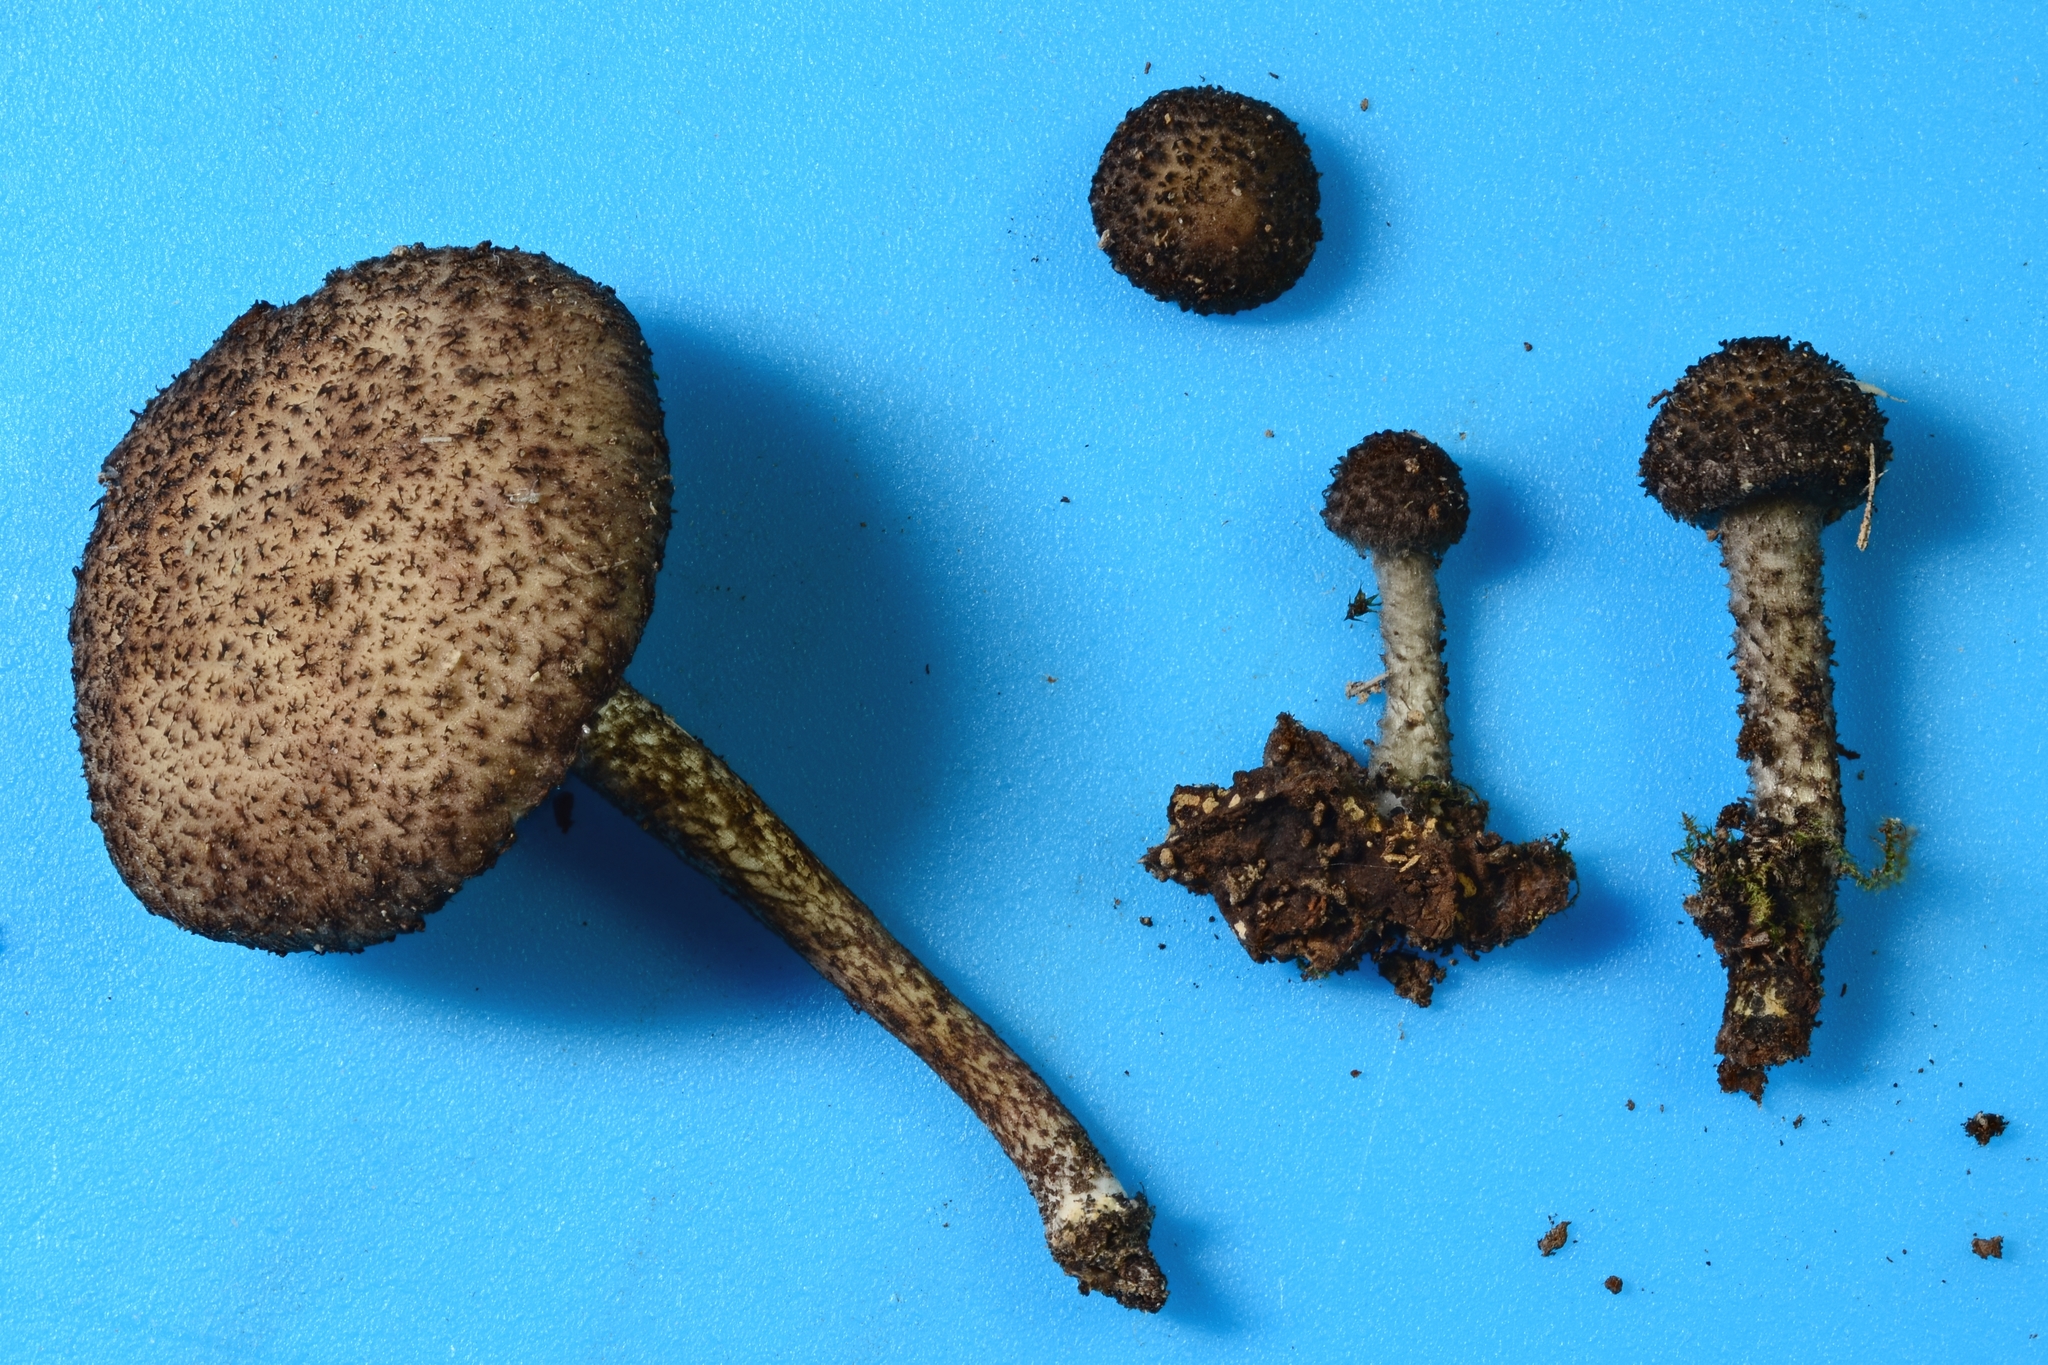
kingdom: Fungi
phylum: Basidiomycota
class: Agaricomycetes
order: Agaricales
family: Psathyrellaceae
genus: Cystoagaricus
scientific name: Cystoagaricus hirtosquamulosus
